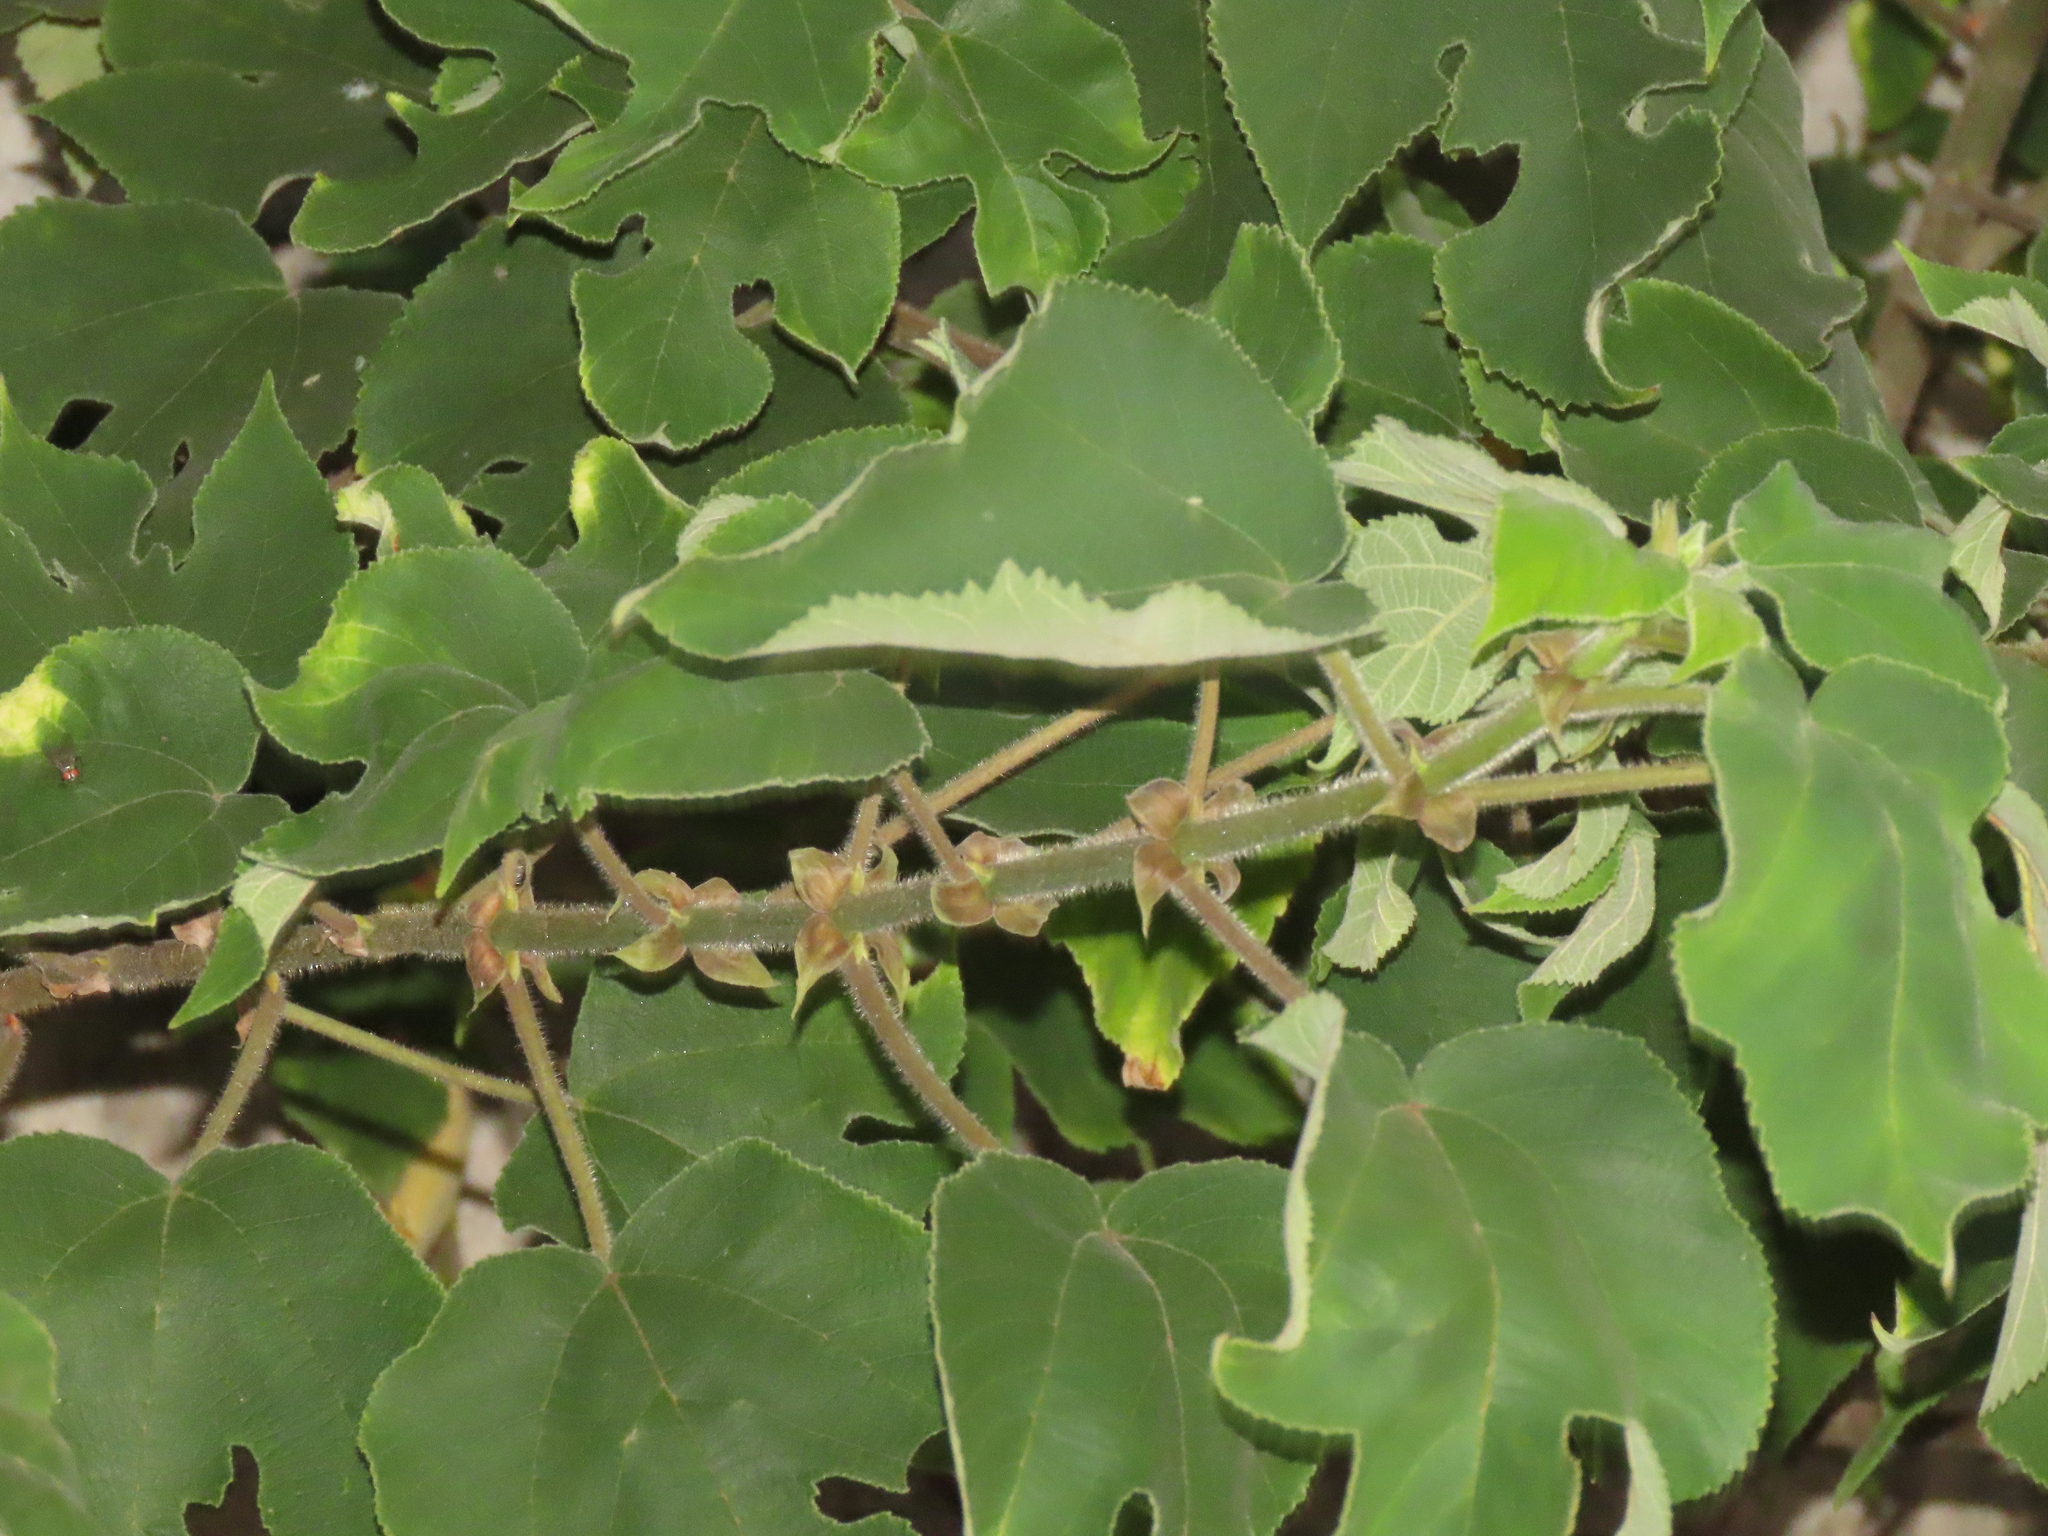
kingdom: Plantae
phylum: Tracheophyta
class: Magnoliopsida
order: Rosales
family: Moraceae
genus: Broussonetia
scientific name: Broussonetia papyrifera
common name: Paper mulberry
